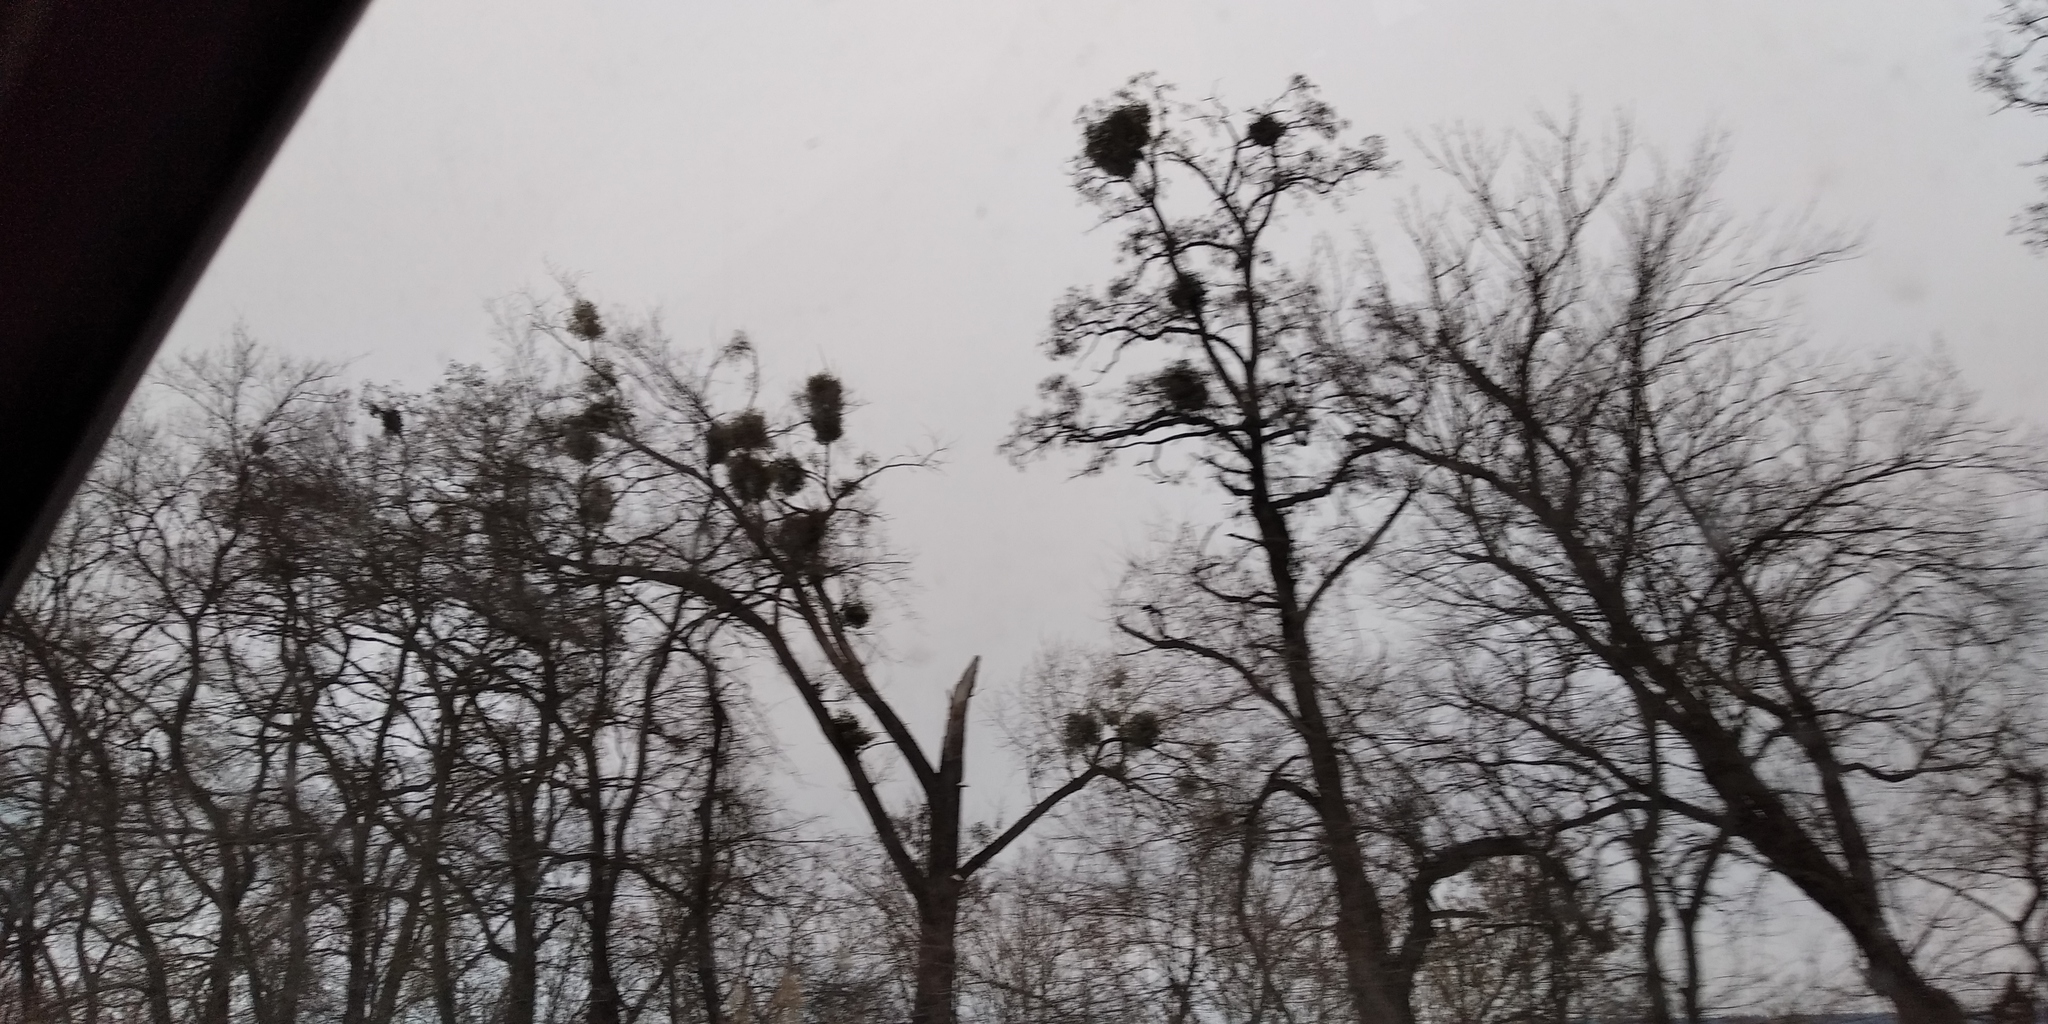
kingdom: Plantae
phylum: Tracheophyta
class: Magnoliopsida
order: Santalales
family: Viscaceae
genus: Viscum
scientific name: Viscum album
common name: Mistletoe
